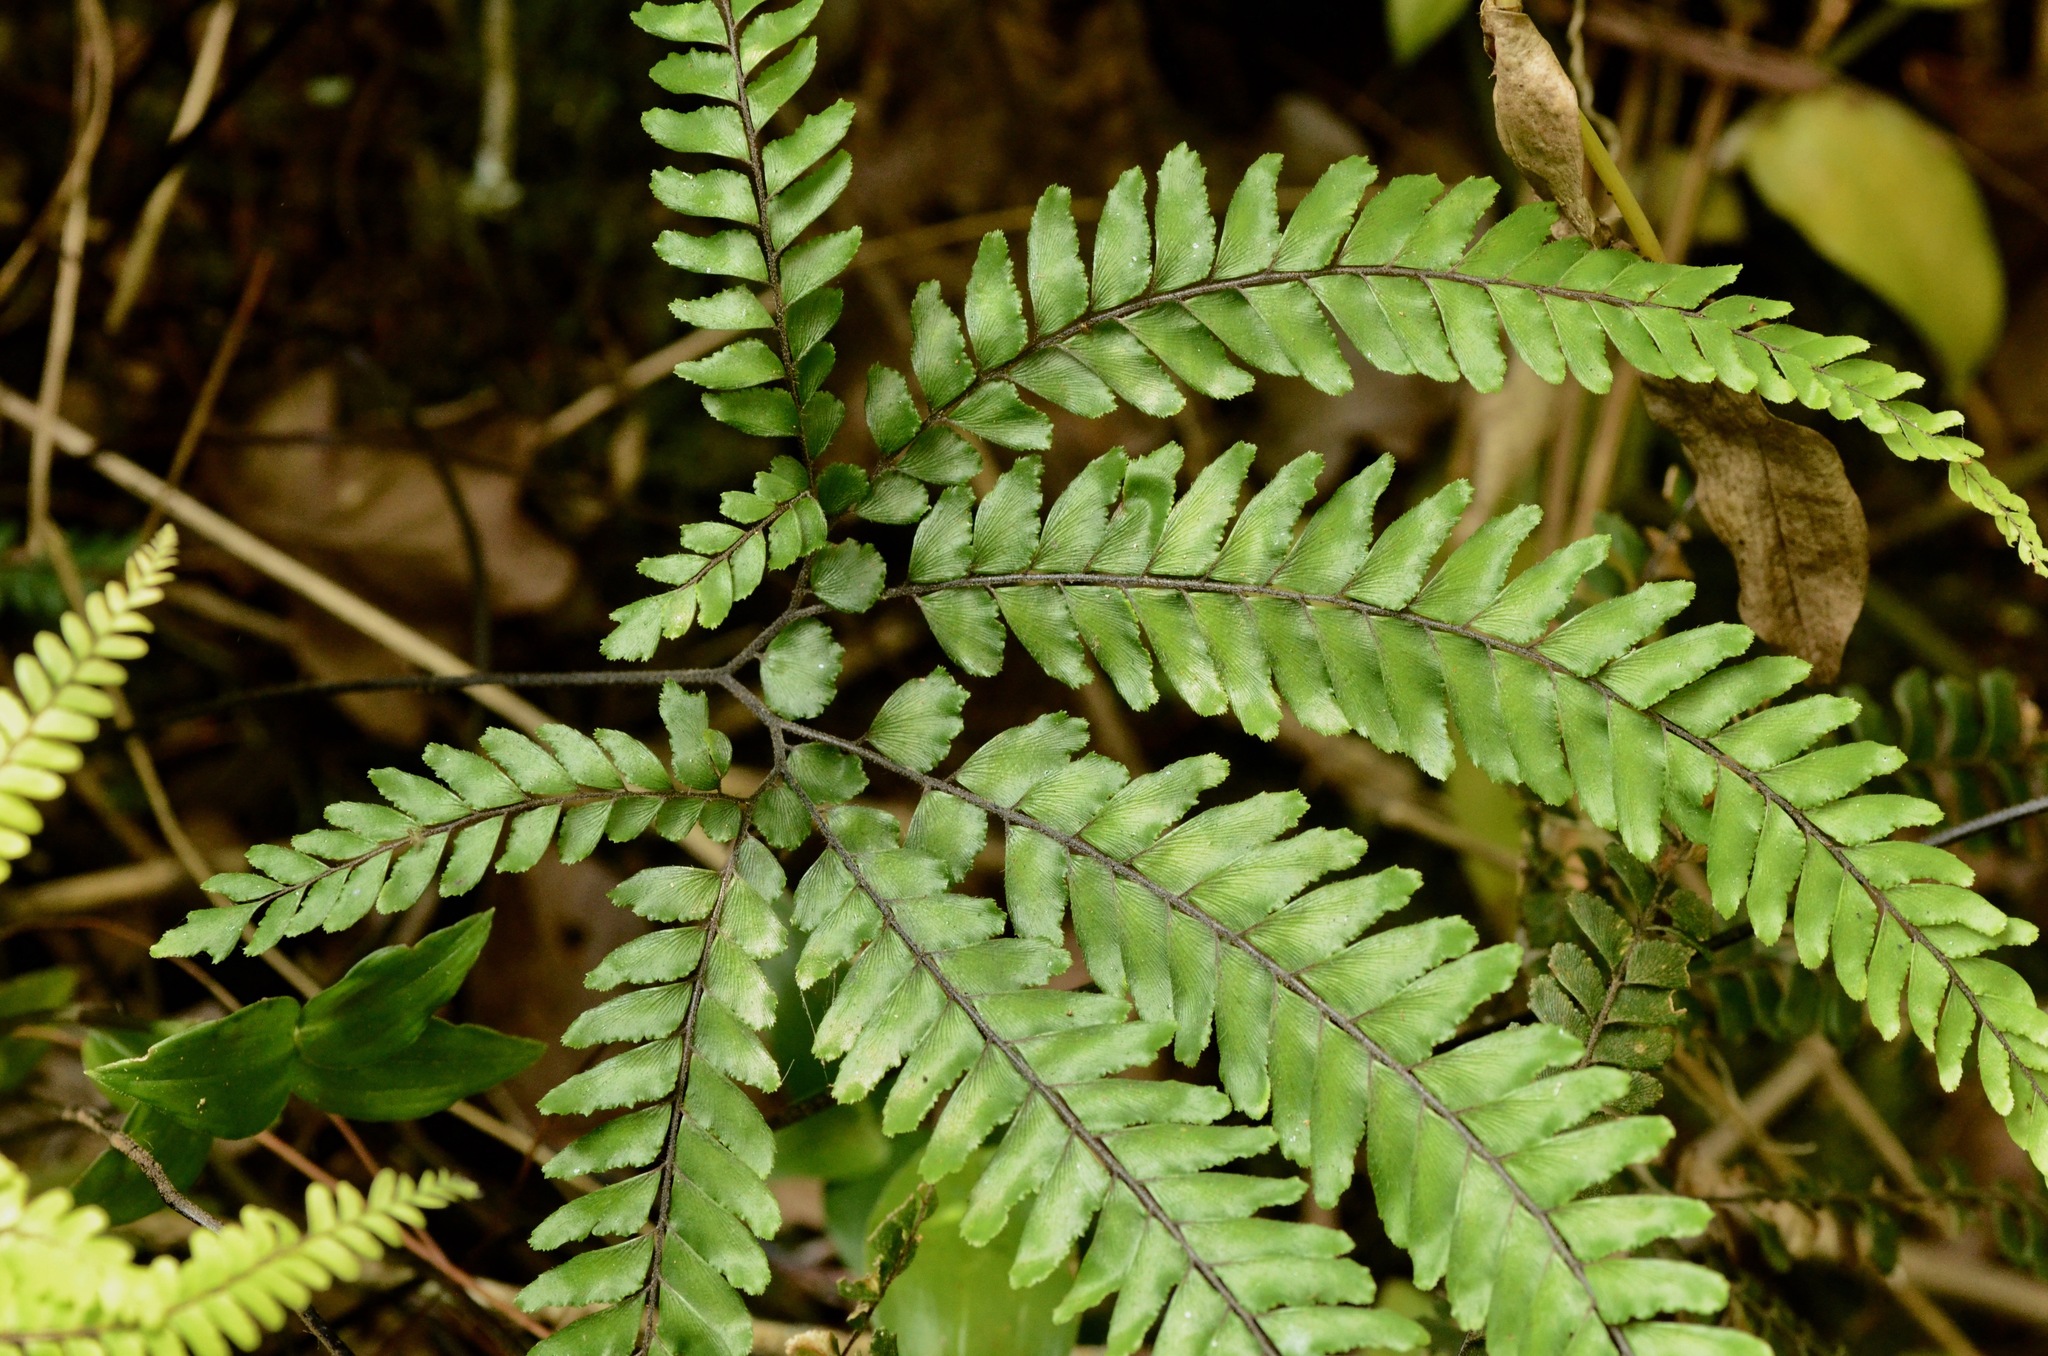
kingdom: Plantae
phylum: Tracheophyta
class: Polypodiopsida
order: Polypodiales
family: Pteridaceae
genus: Adiantum
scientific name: Adiantum hispidulum
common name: Rough maidenhair
